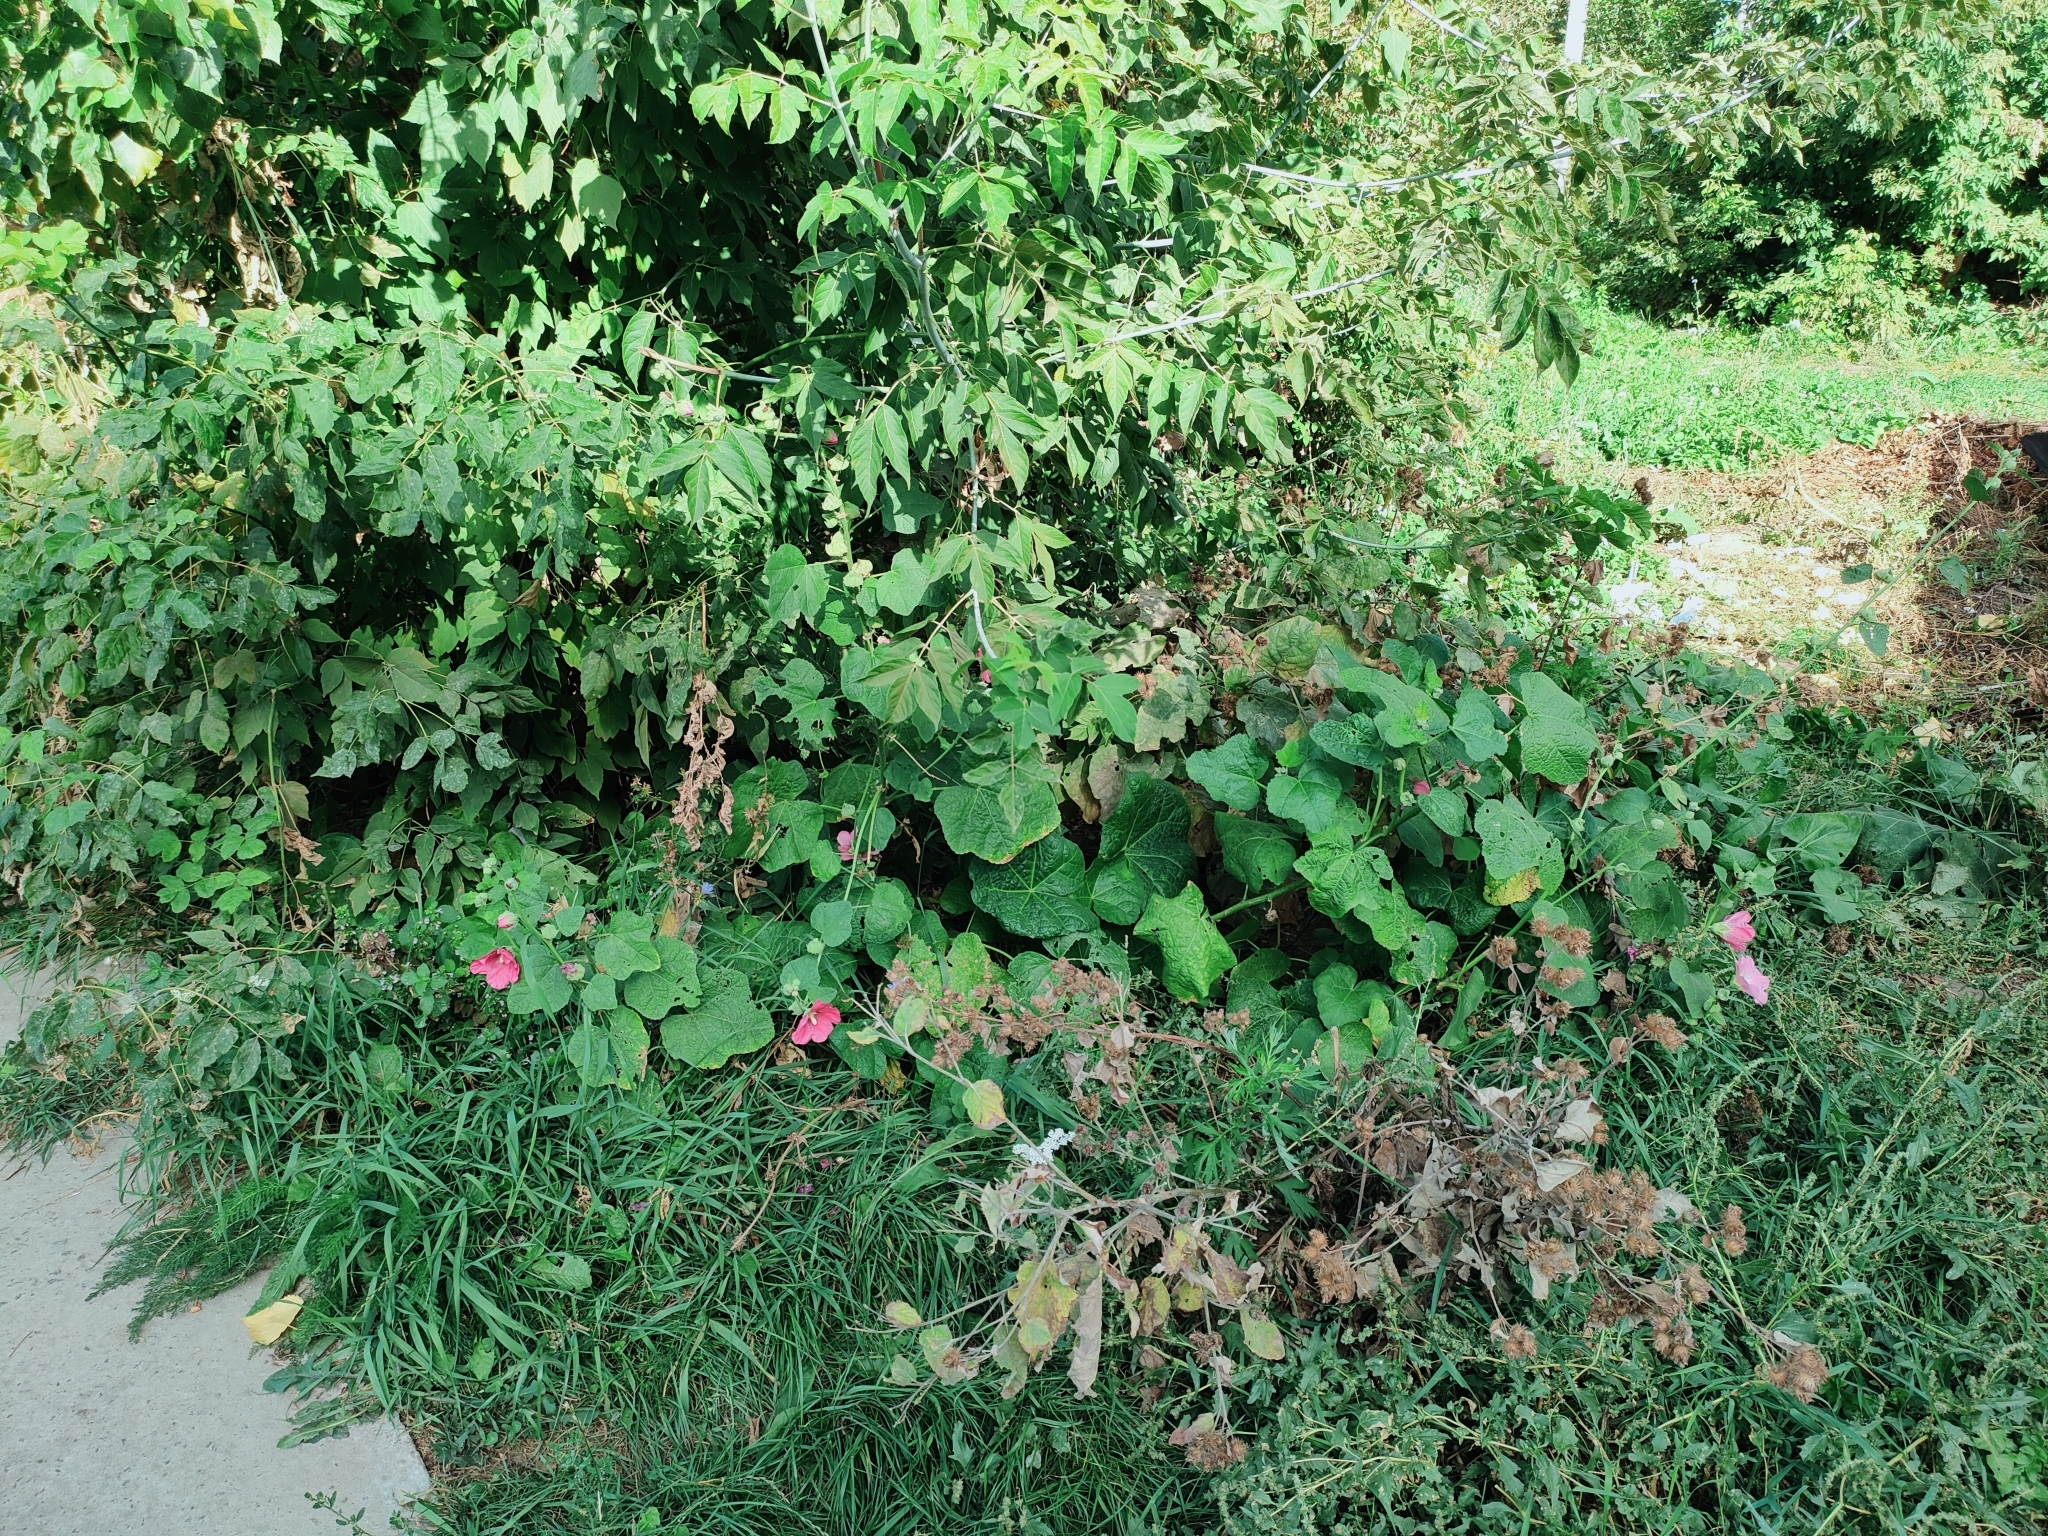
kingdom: Plantae
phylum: Tracheophyta
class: Magnoliopsida
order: Malvales
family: Malvaceae
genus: Alcea
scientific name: Alcea rosea
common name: Hollyhock
